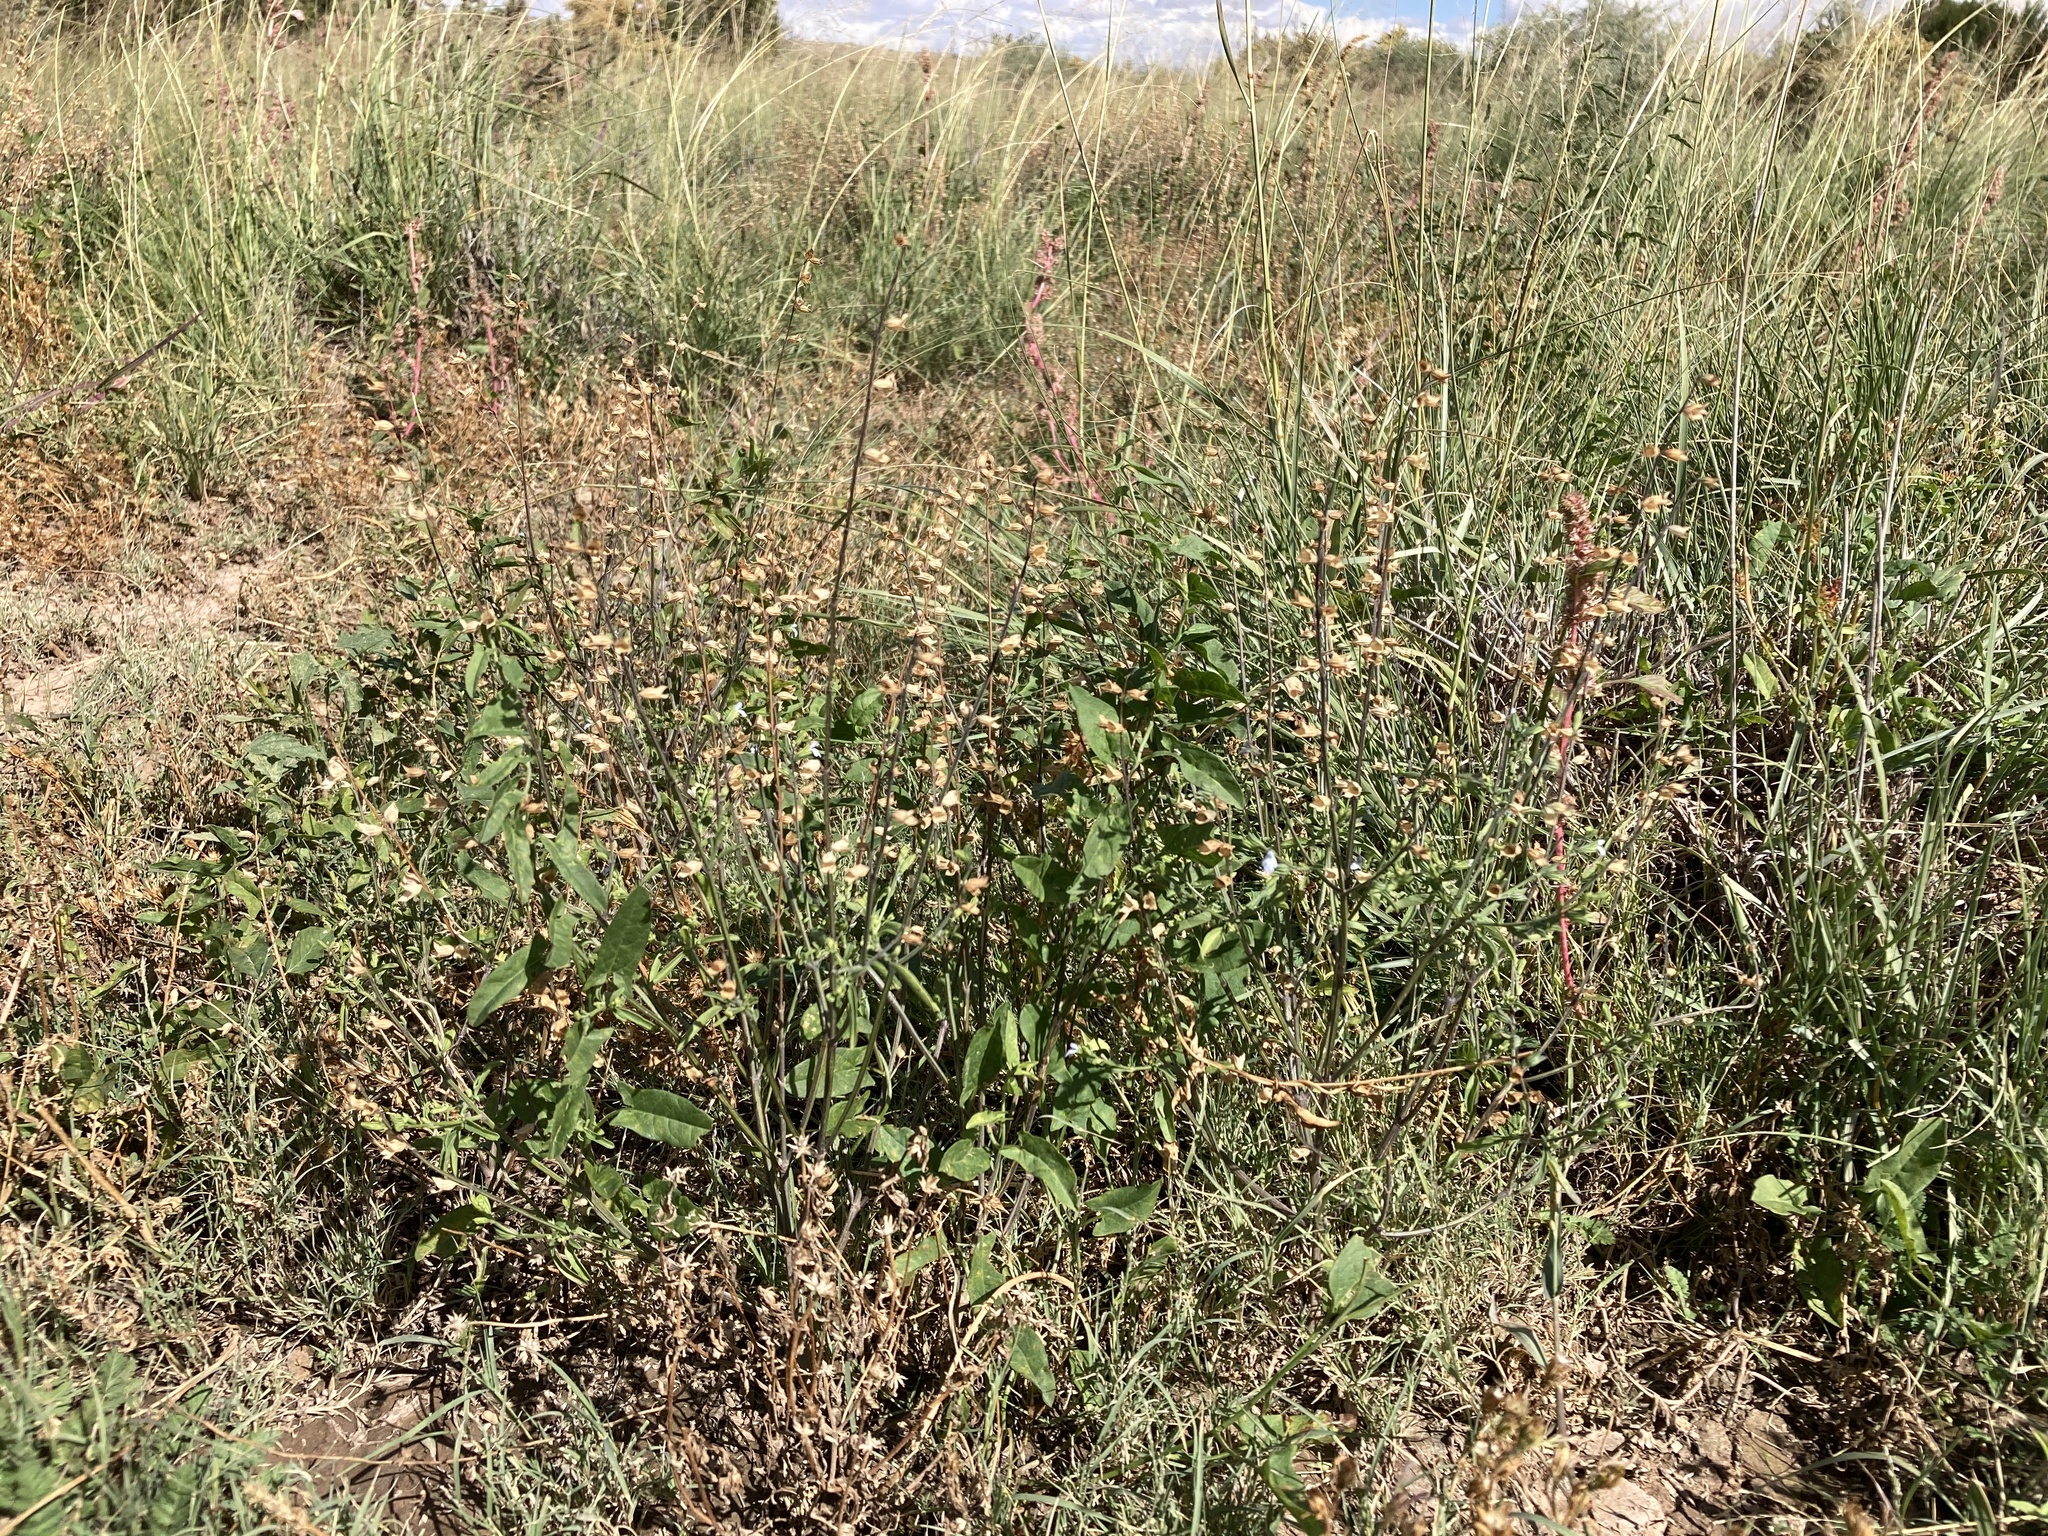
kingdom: Plantae
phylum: Tracheophyta
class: Magnoliopsida
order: Lamiales
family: Lamiaceae
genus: Salvia
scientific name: Salvia reflexa
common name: Mintweed
